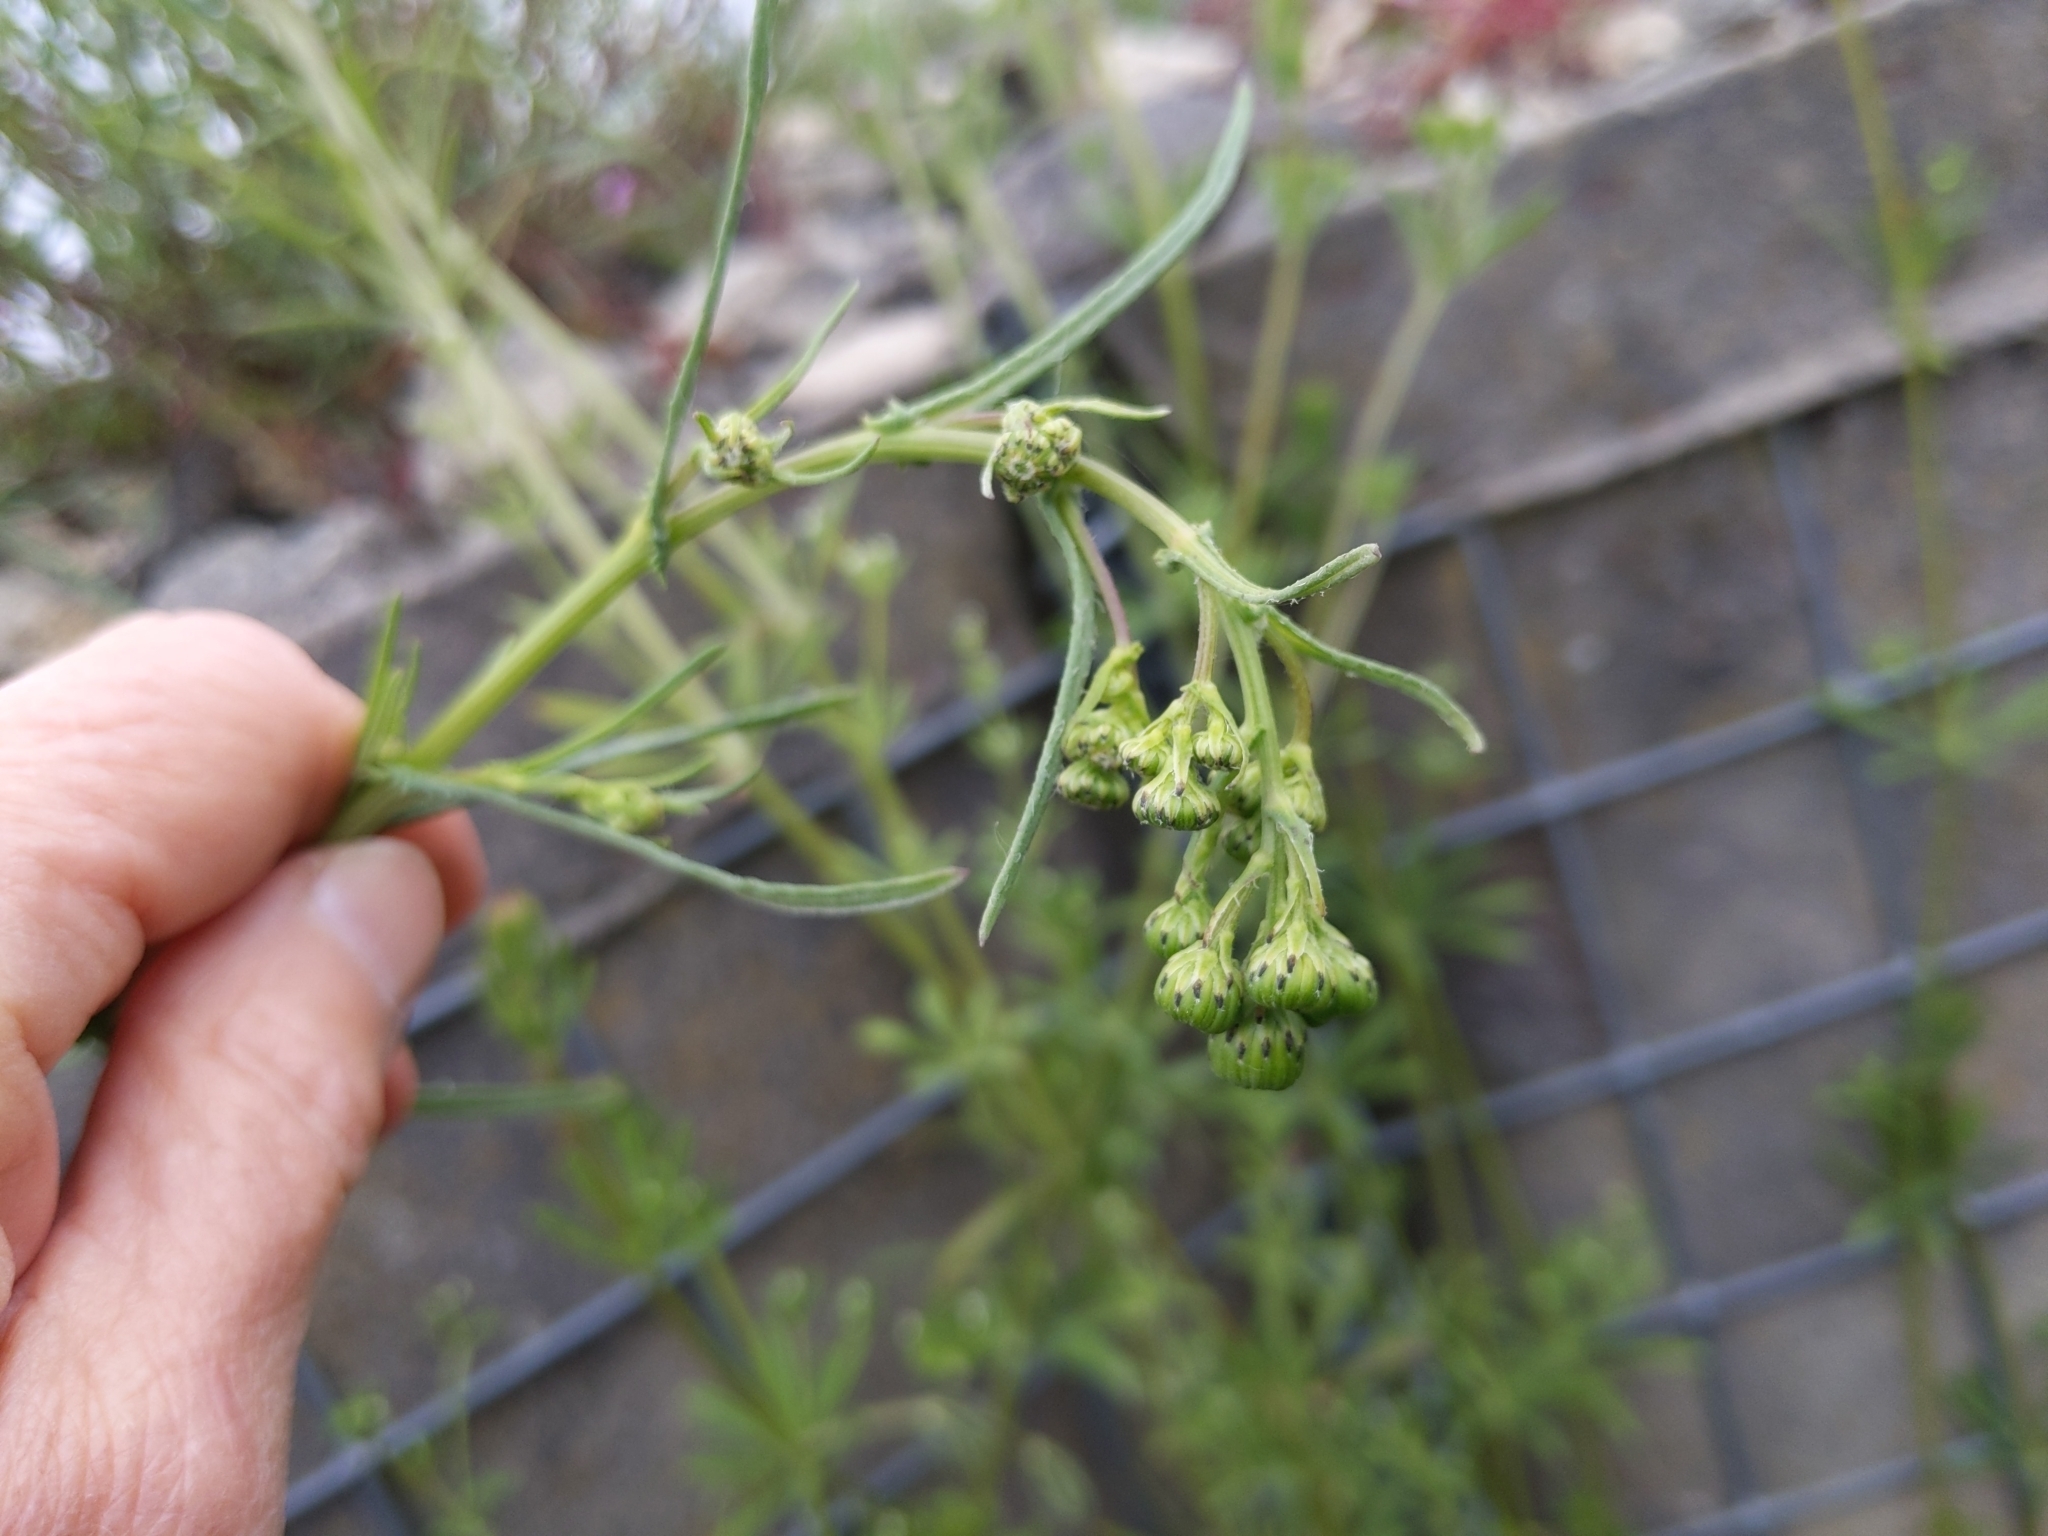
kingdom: Plantae
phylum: Tracheophyta
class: Magnoliopsida
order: Asterales
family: Asteraceae
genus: Senecio
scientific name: Senecio inaequidens
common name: Narrow-leaved ragwort
